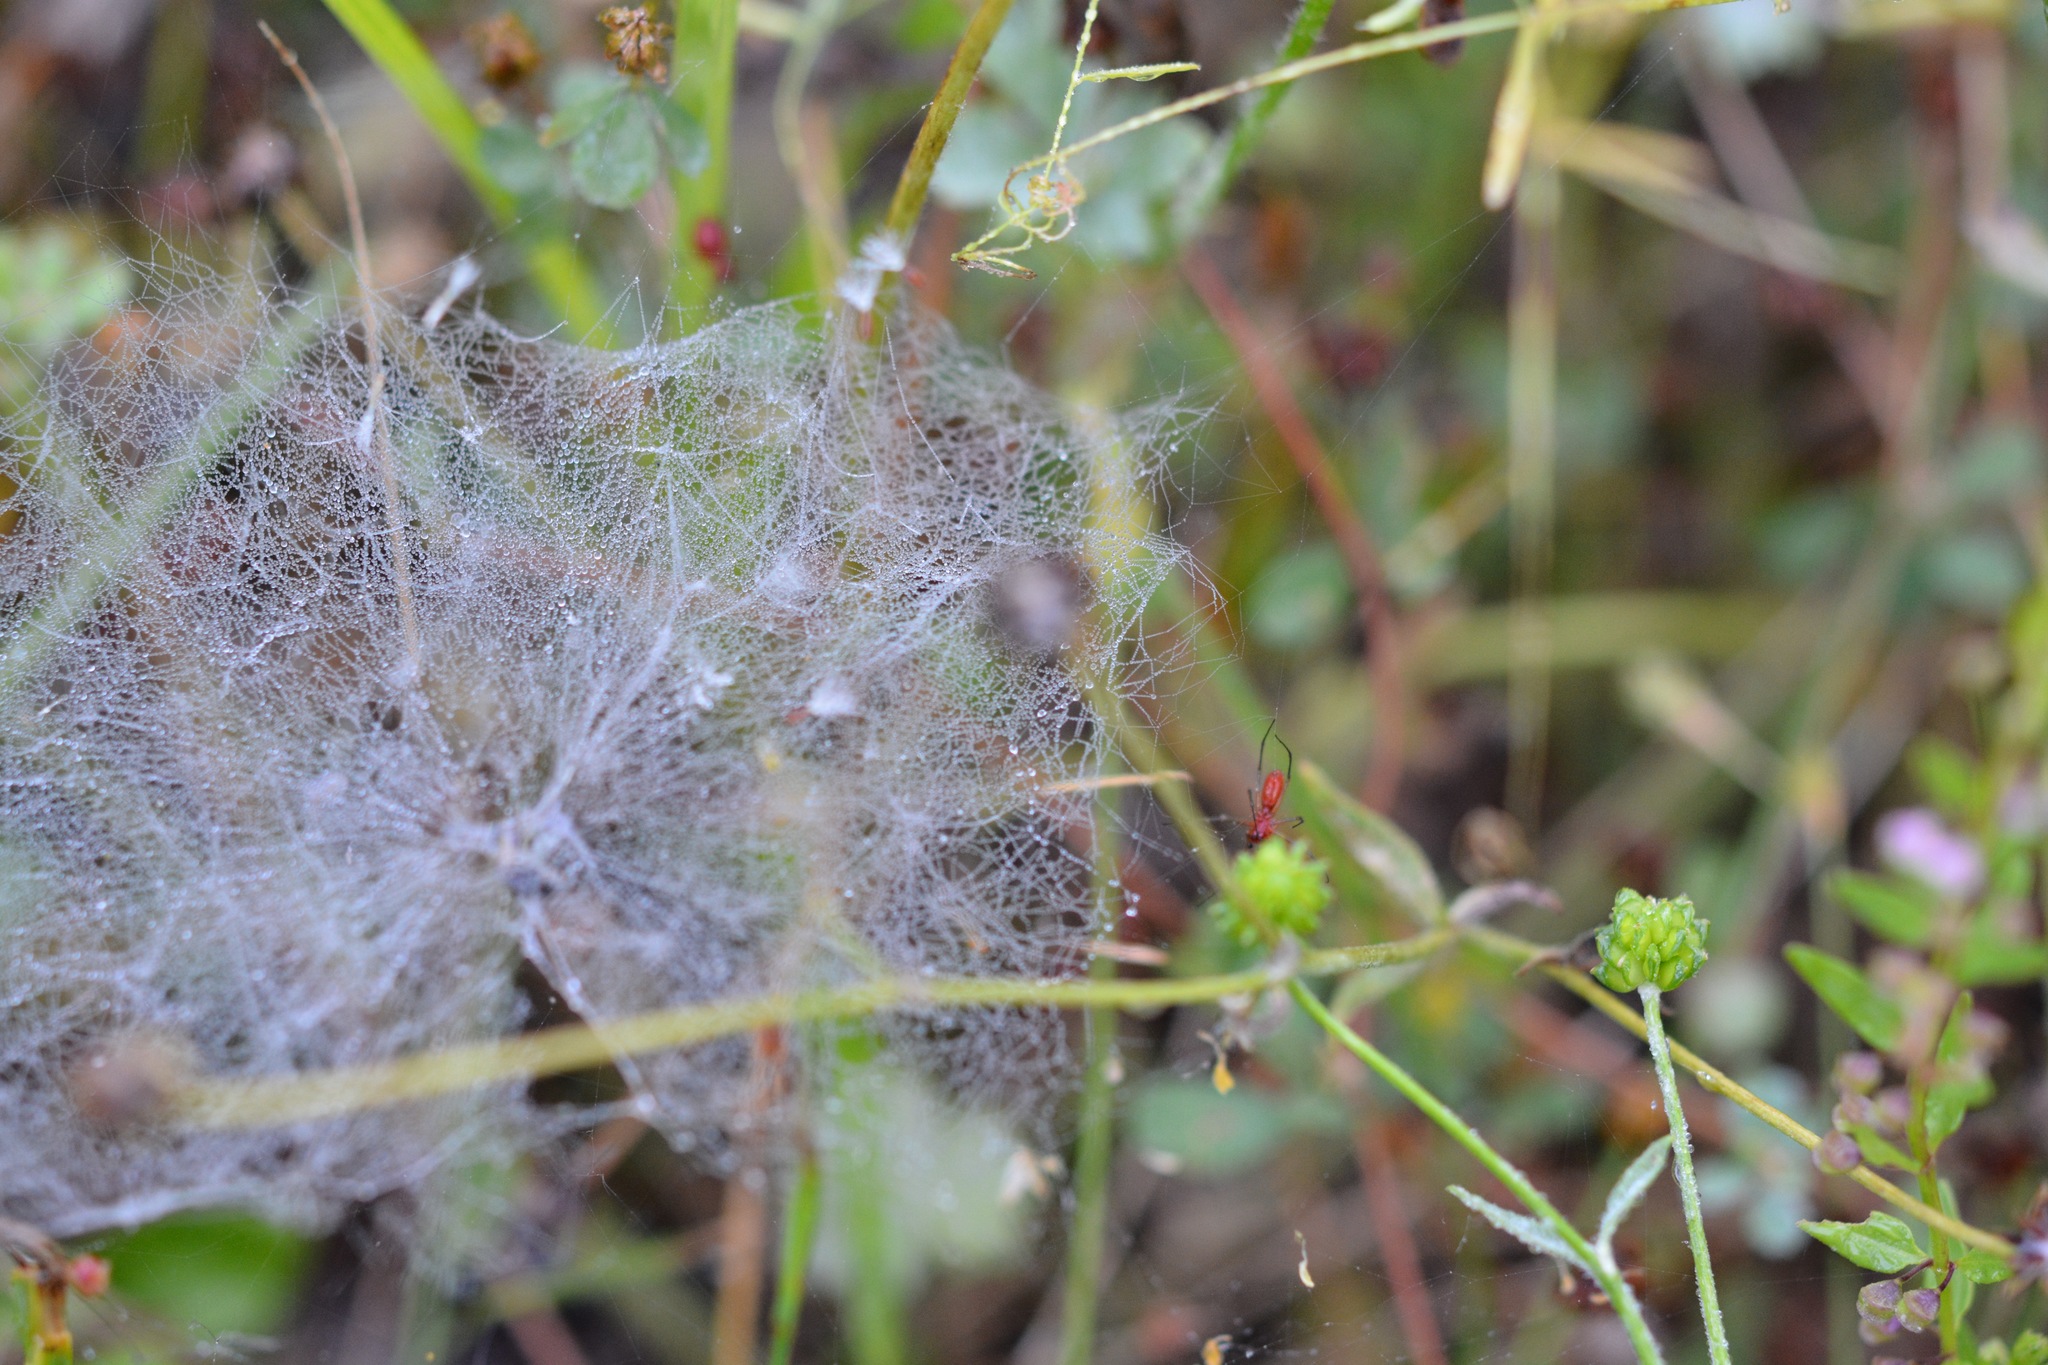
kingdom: Animalia
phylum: Arthropoda
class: Arachnida
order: Araneae
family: Linyphiidae
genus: Florinda
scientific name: Florinda coccinea
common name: Black-tailed red sheetweaver
